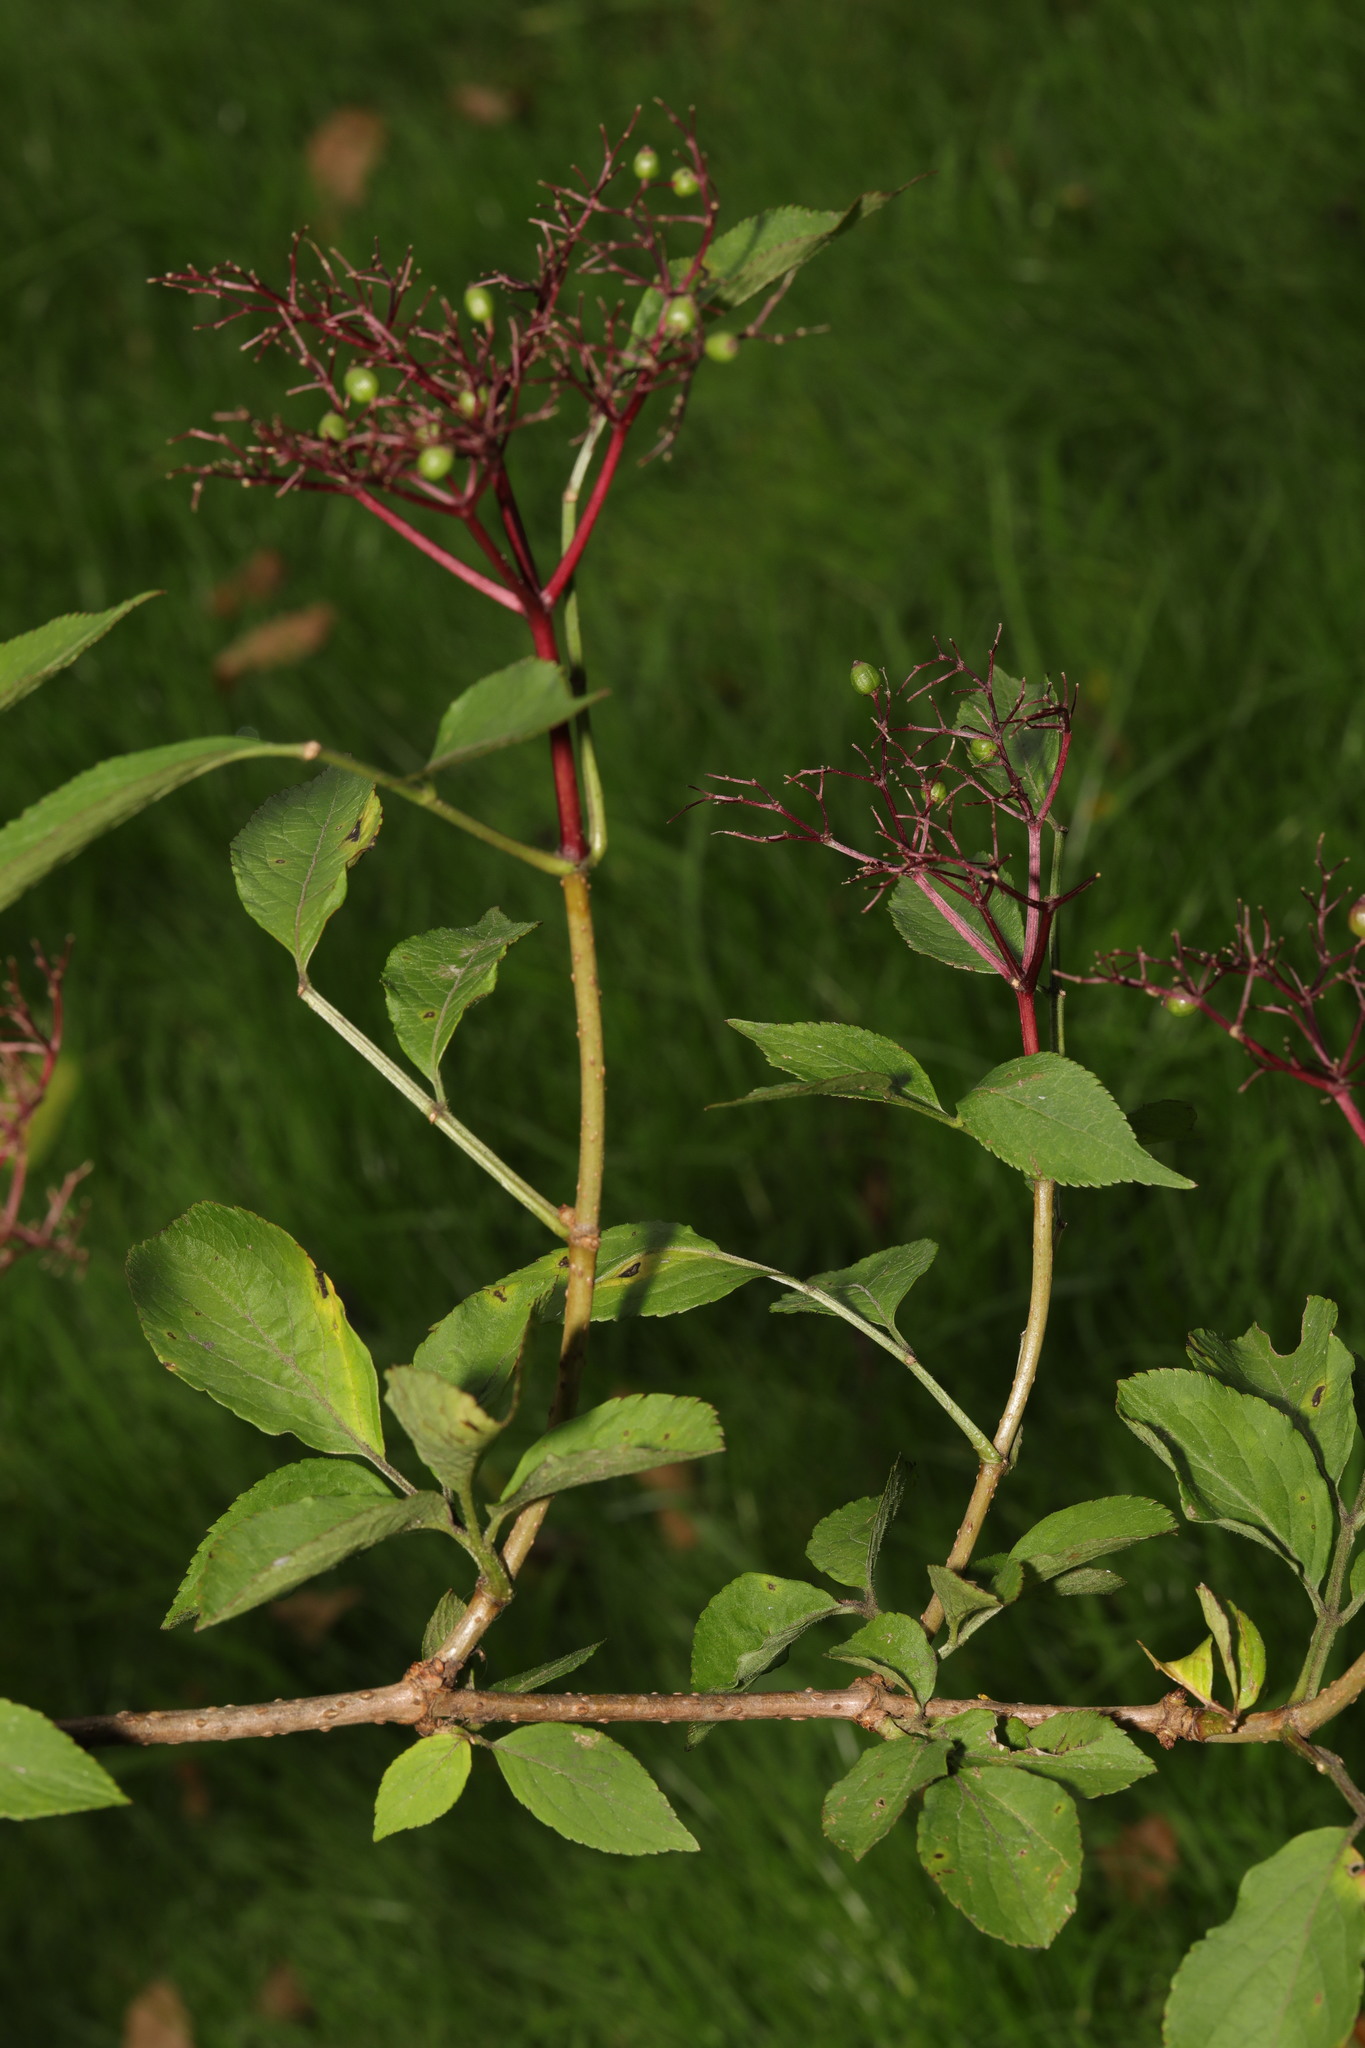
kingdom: Plantae
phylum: Tracheophyta
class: Magnoliopsida
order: Dipsacales
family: Viburnaceae
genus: Sambucus
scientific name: Sambucus nigra
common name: Elder
